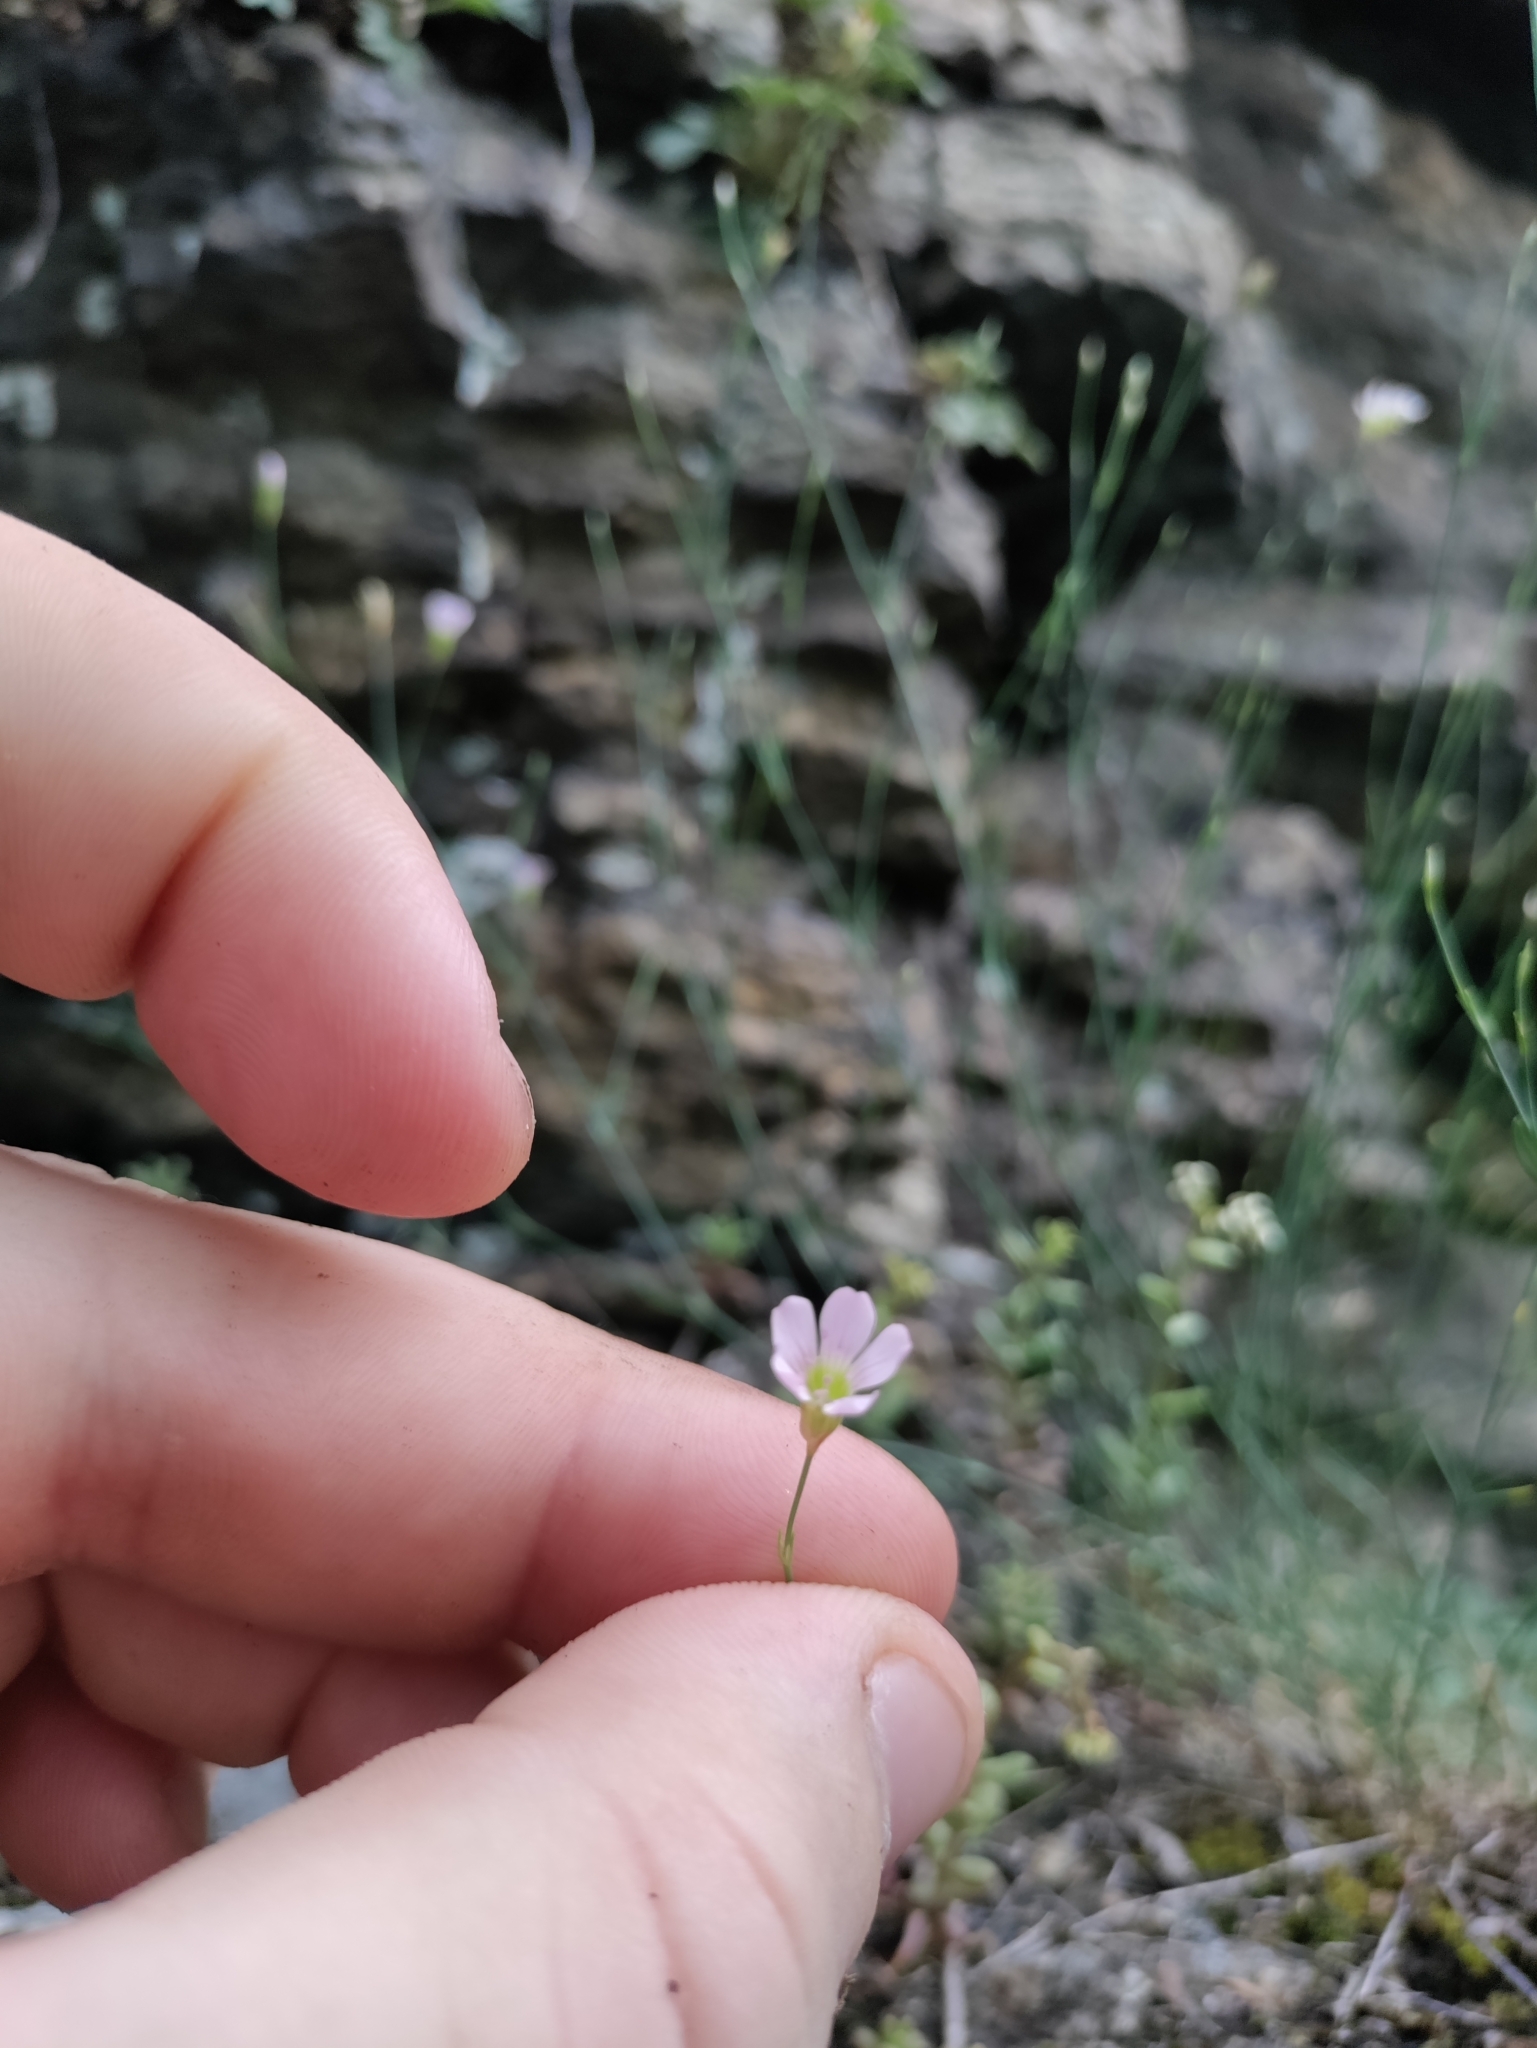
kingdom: Plantae
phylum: Tracheophyta
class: Magnoliopsida
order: Caryophyllales
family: Caryophyllaceae
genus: Petrorhagia
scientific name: Petrorhagia saxifraga
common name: Tunicflower
